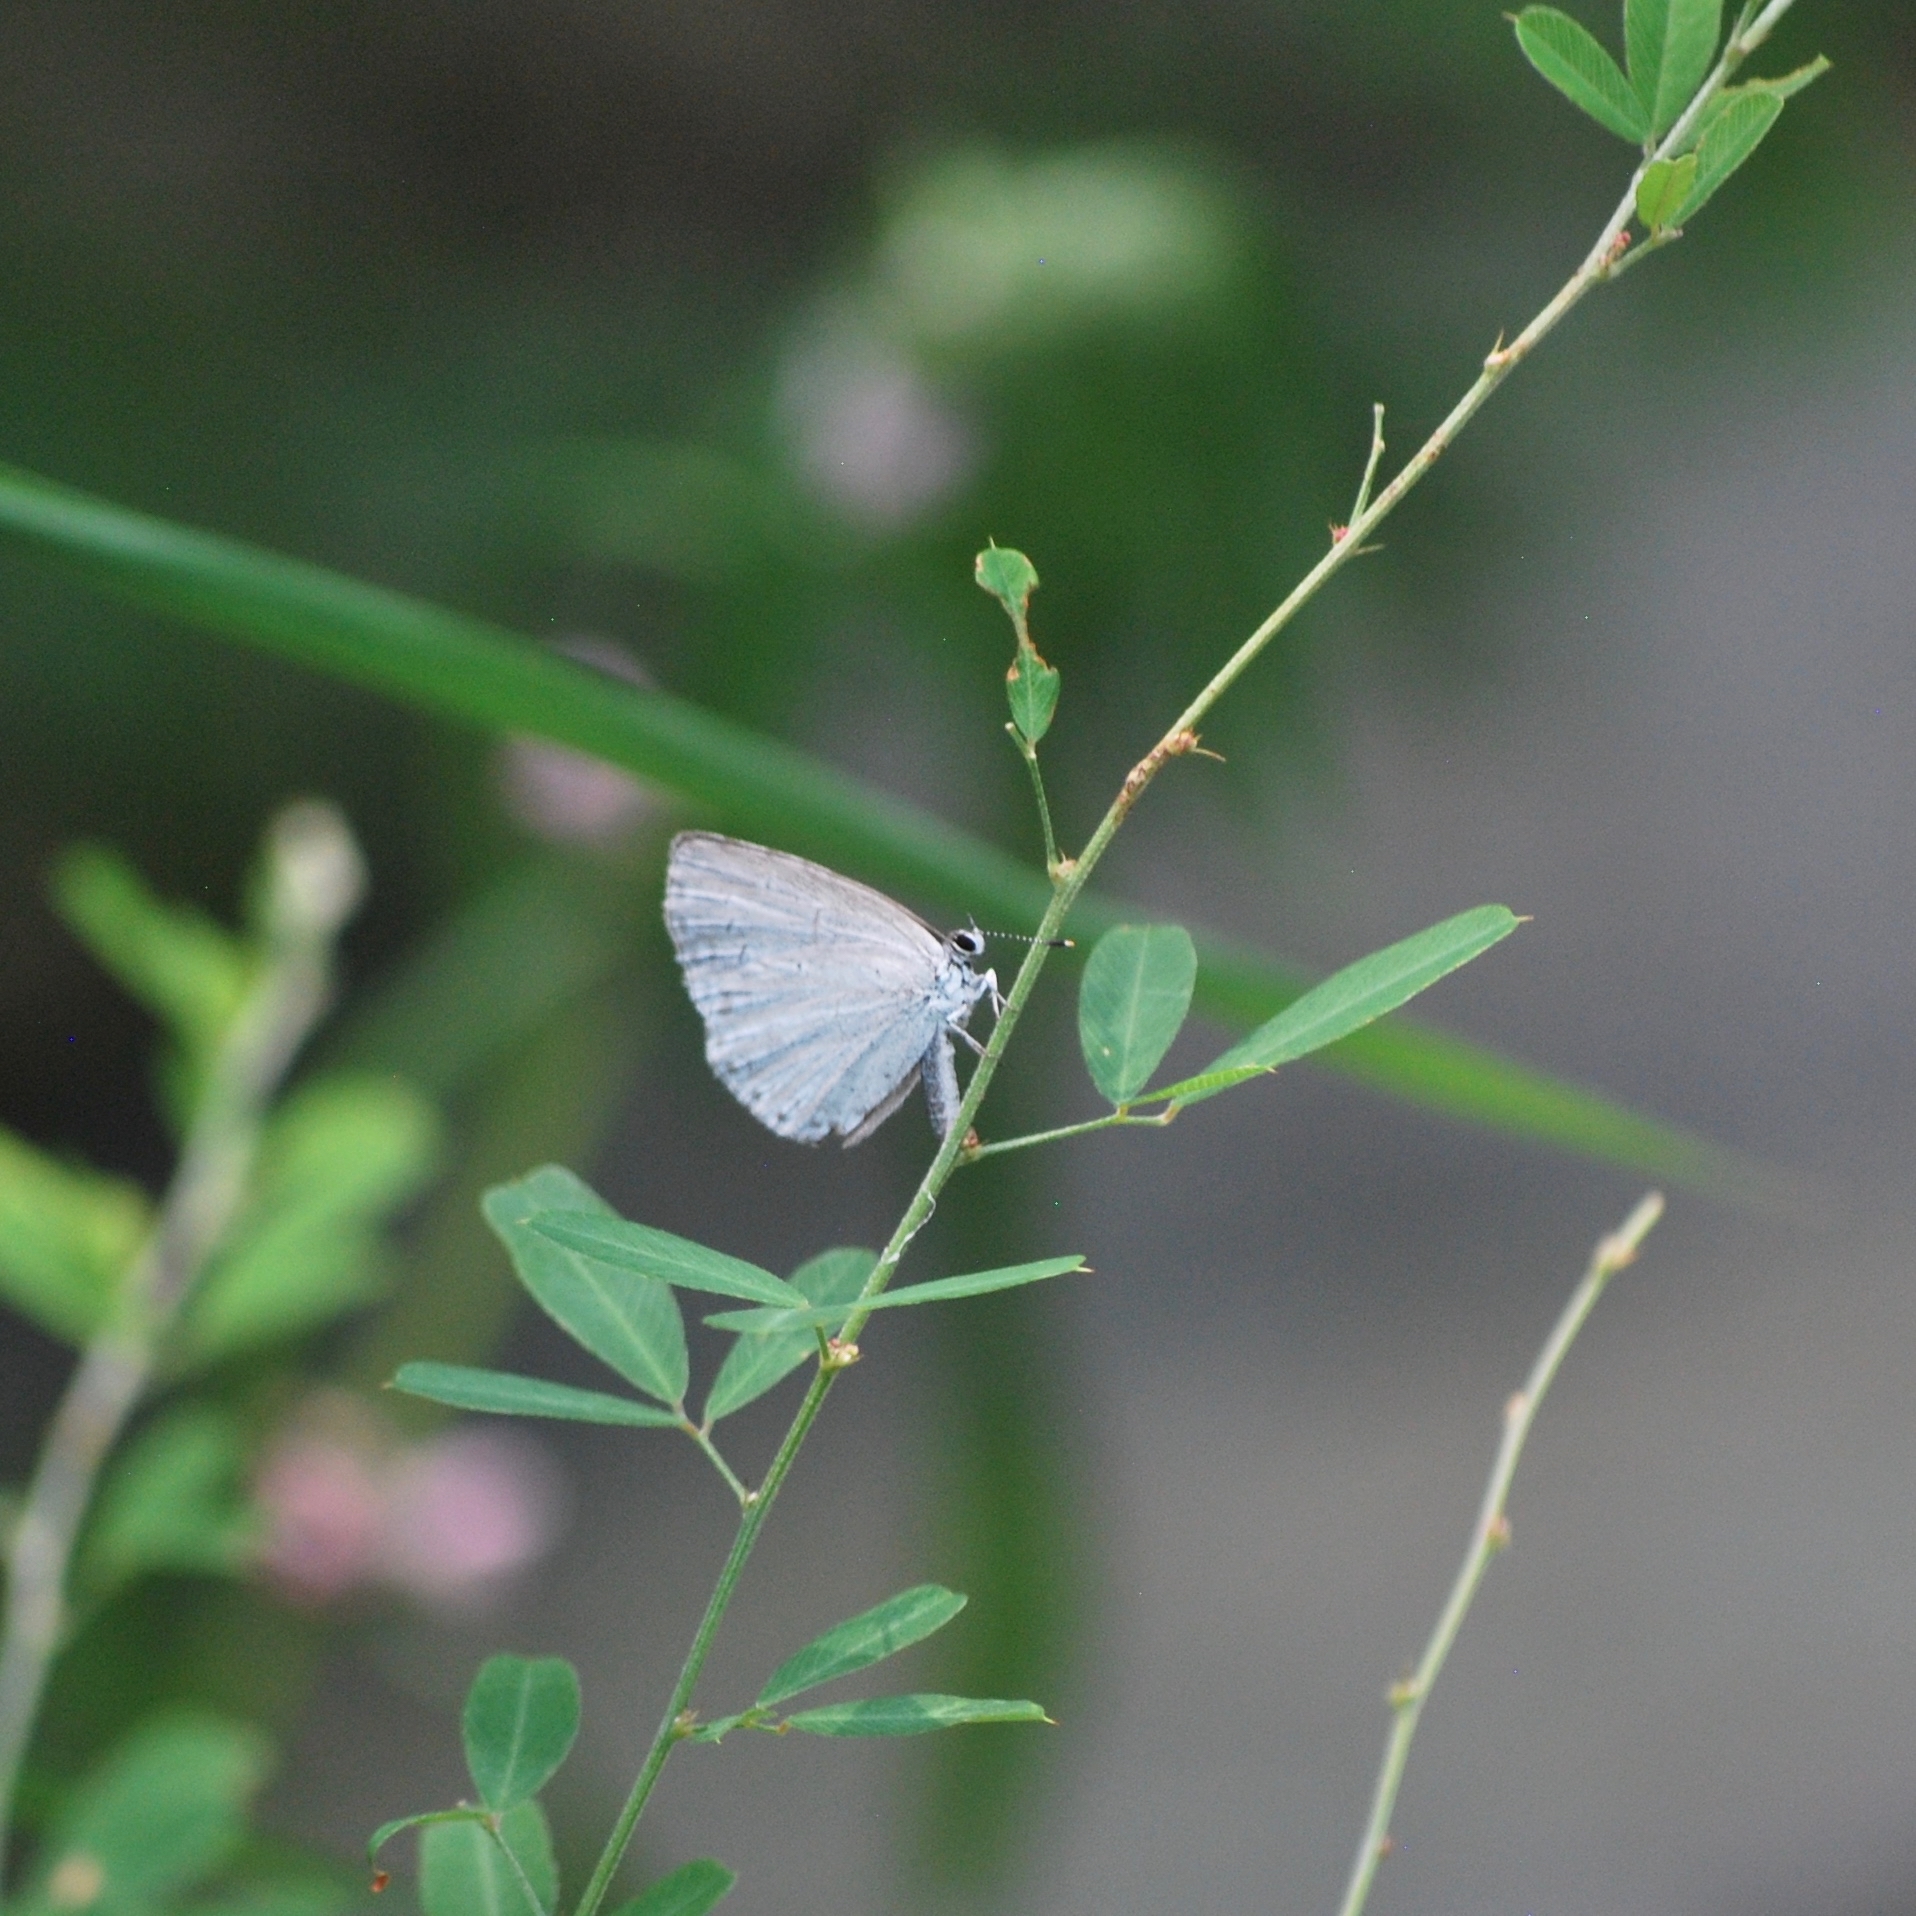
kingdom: Animalia
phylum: Arthropoda
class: Insecta
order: Lepidoptera
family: Lycaenidae
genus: Celastrina
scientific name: Celastrina argiolus
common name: Holly blue
